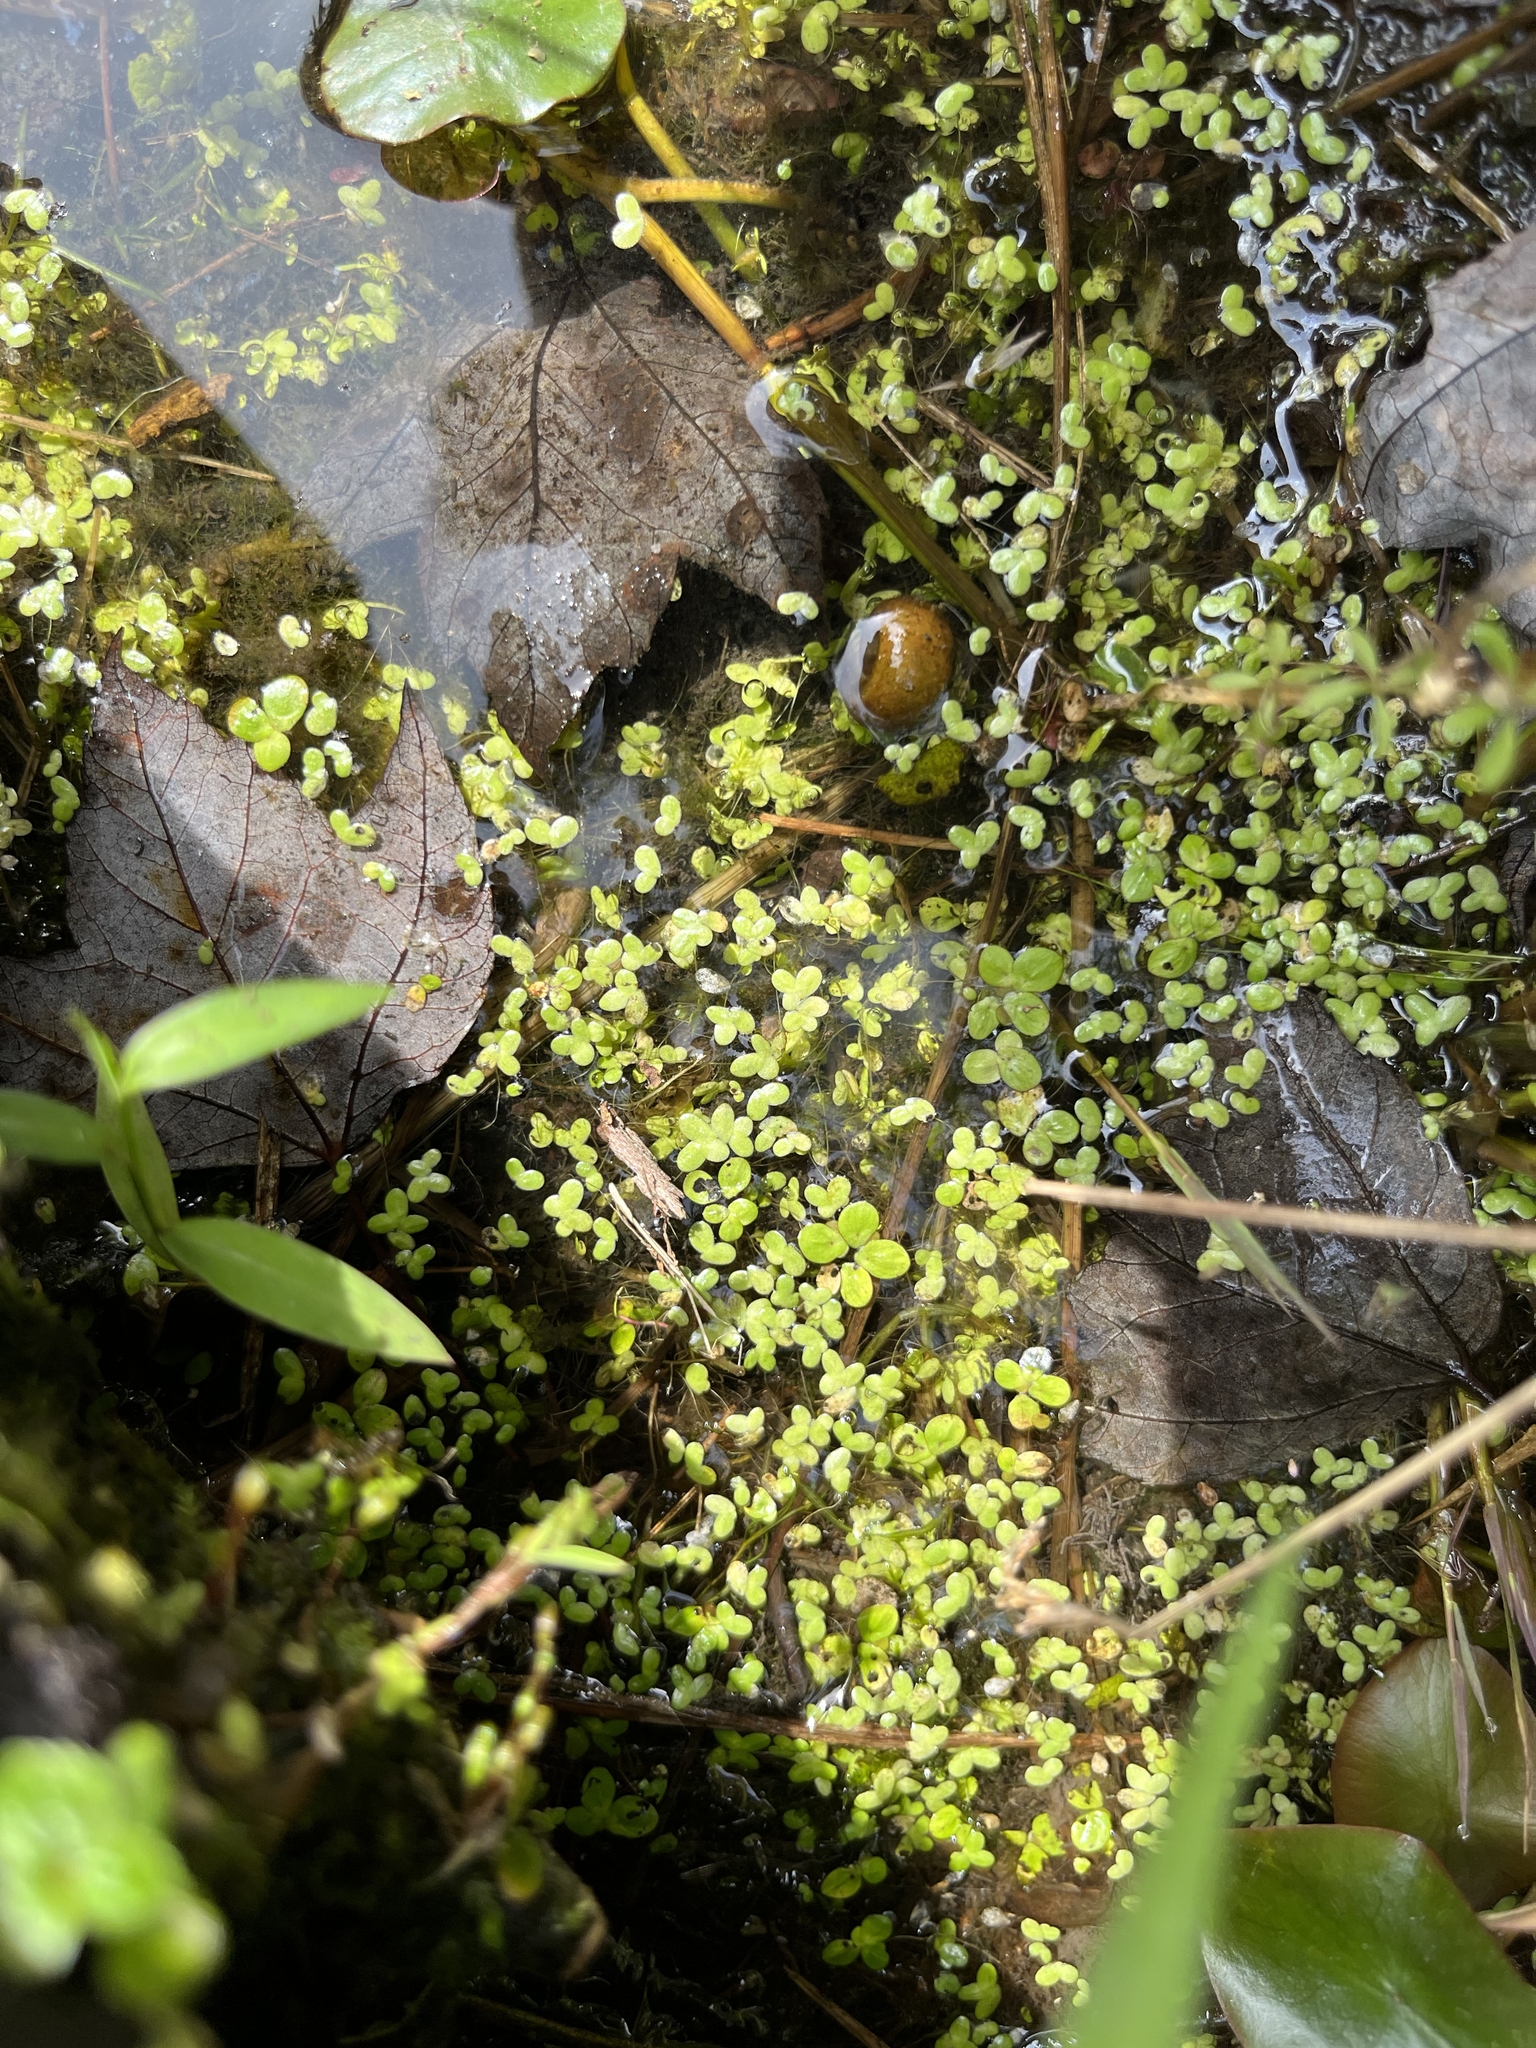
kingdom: Plantae
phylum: Tracheophyta
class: Liliopsida
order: Alismatales
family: Araceae
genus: Lemna
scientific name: Lemna minor
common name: Common duckweed
